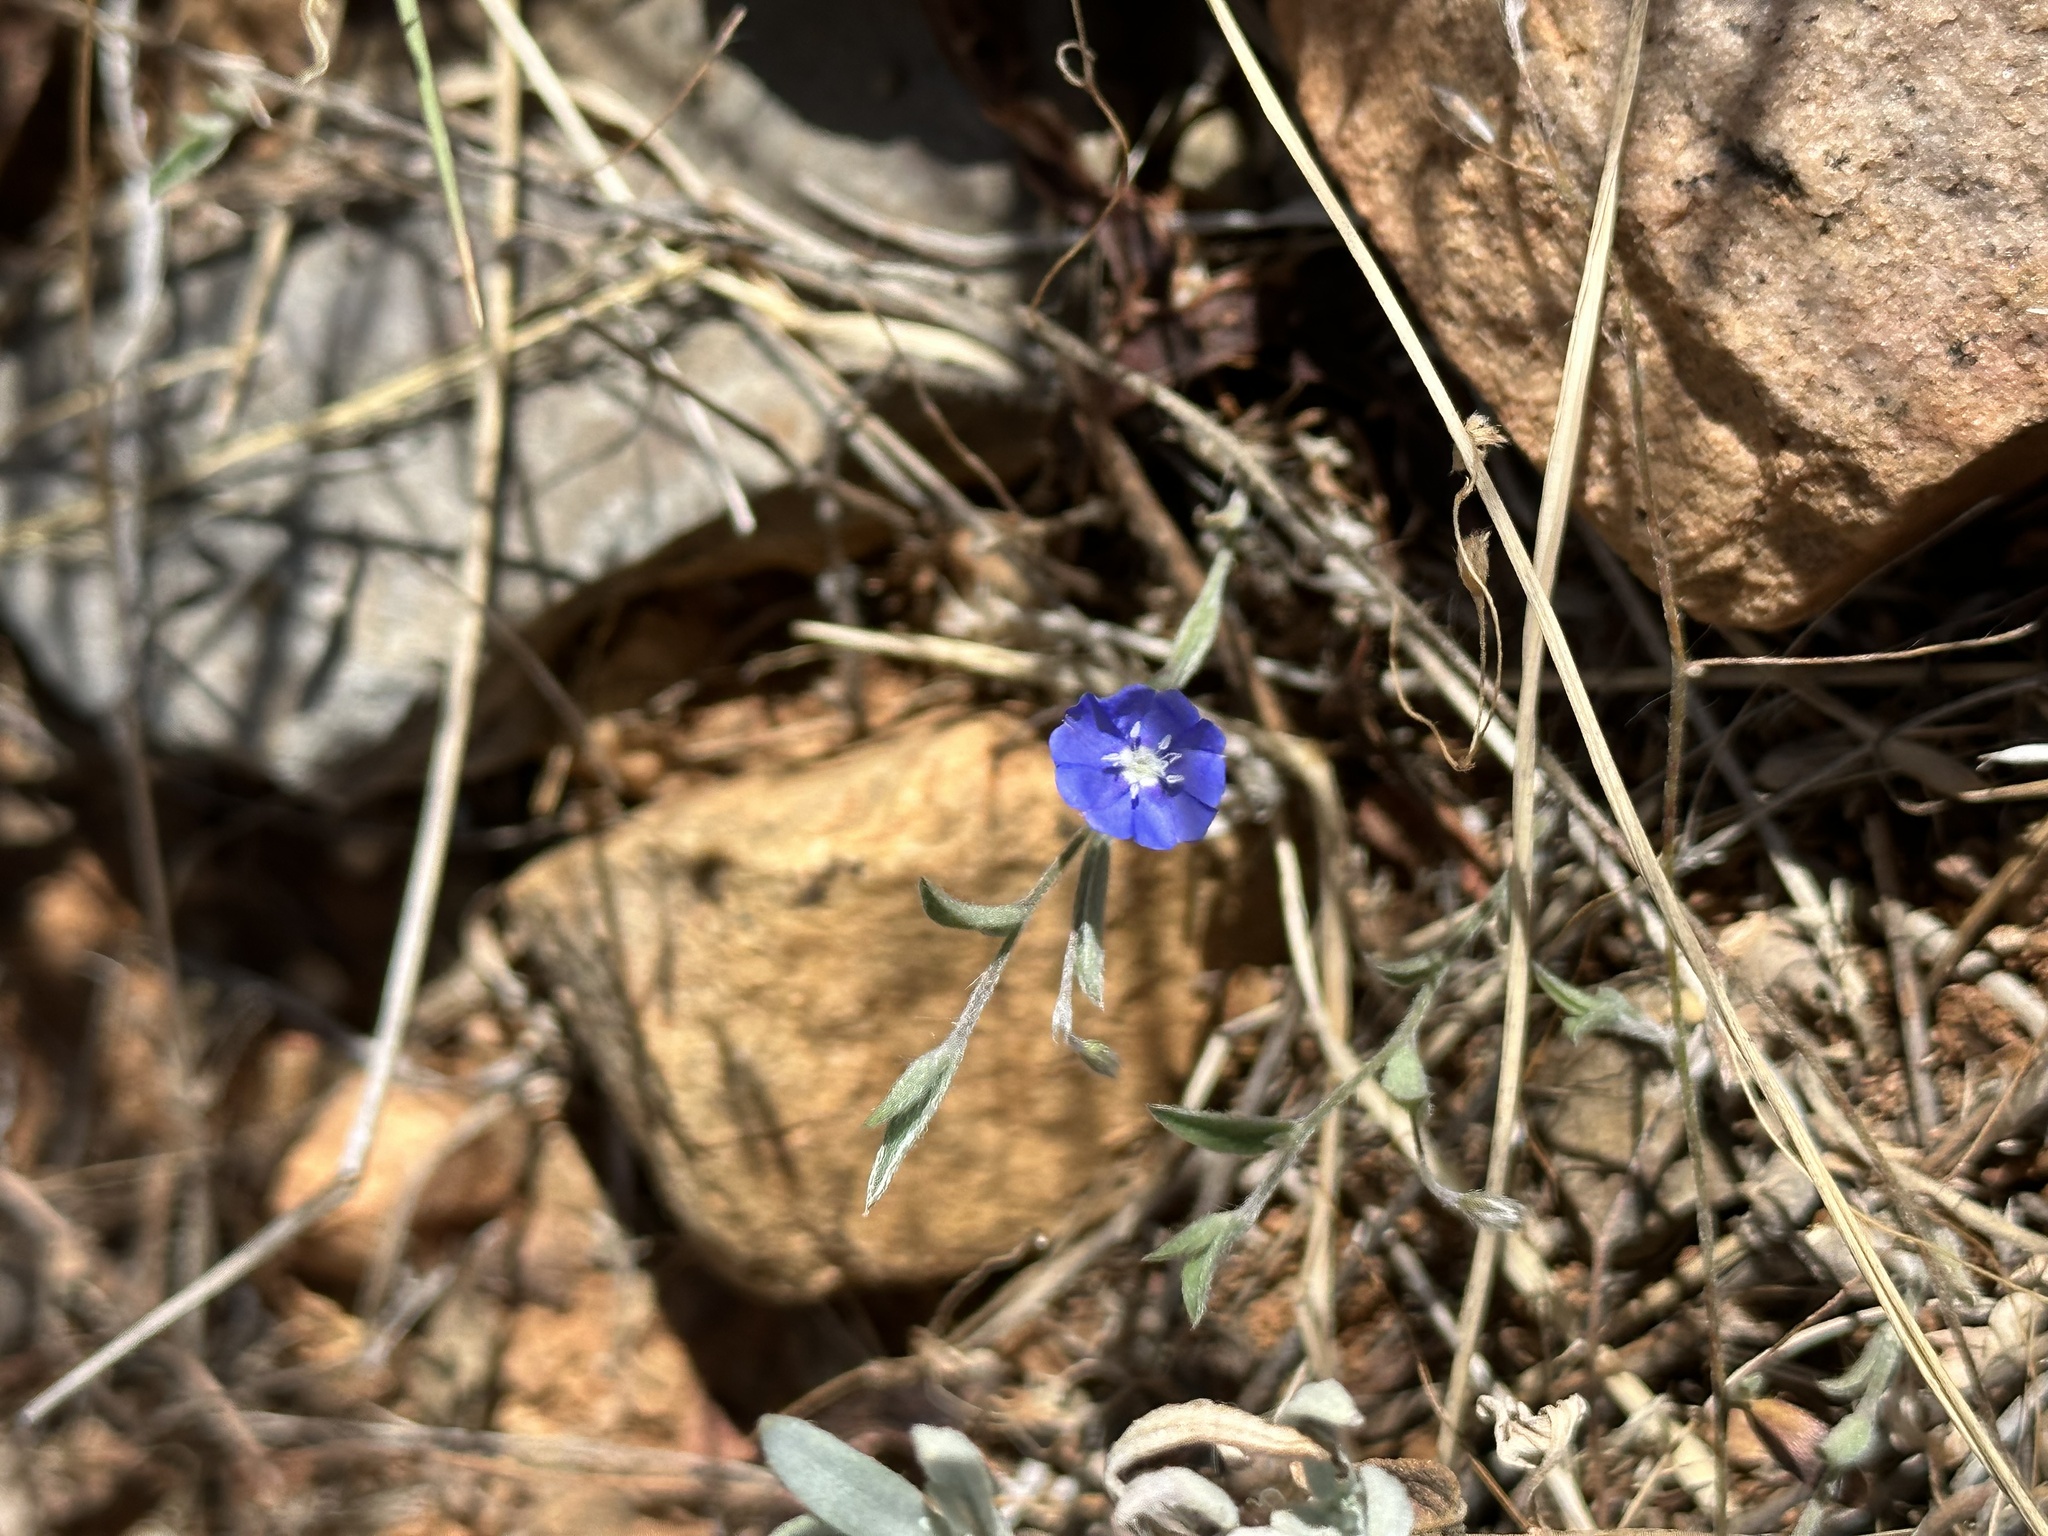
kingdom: Plantae
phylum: Tracheophyta
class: Magnoliopsida
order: Solanales
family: Convolvulaceae
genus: Evolvulus
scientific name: Evolvulus alsinoides
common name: Slender dwarf morning-glory
